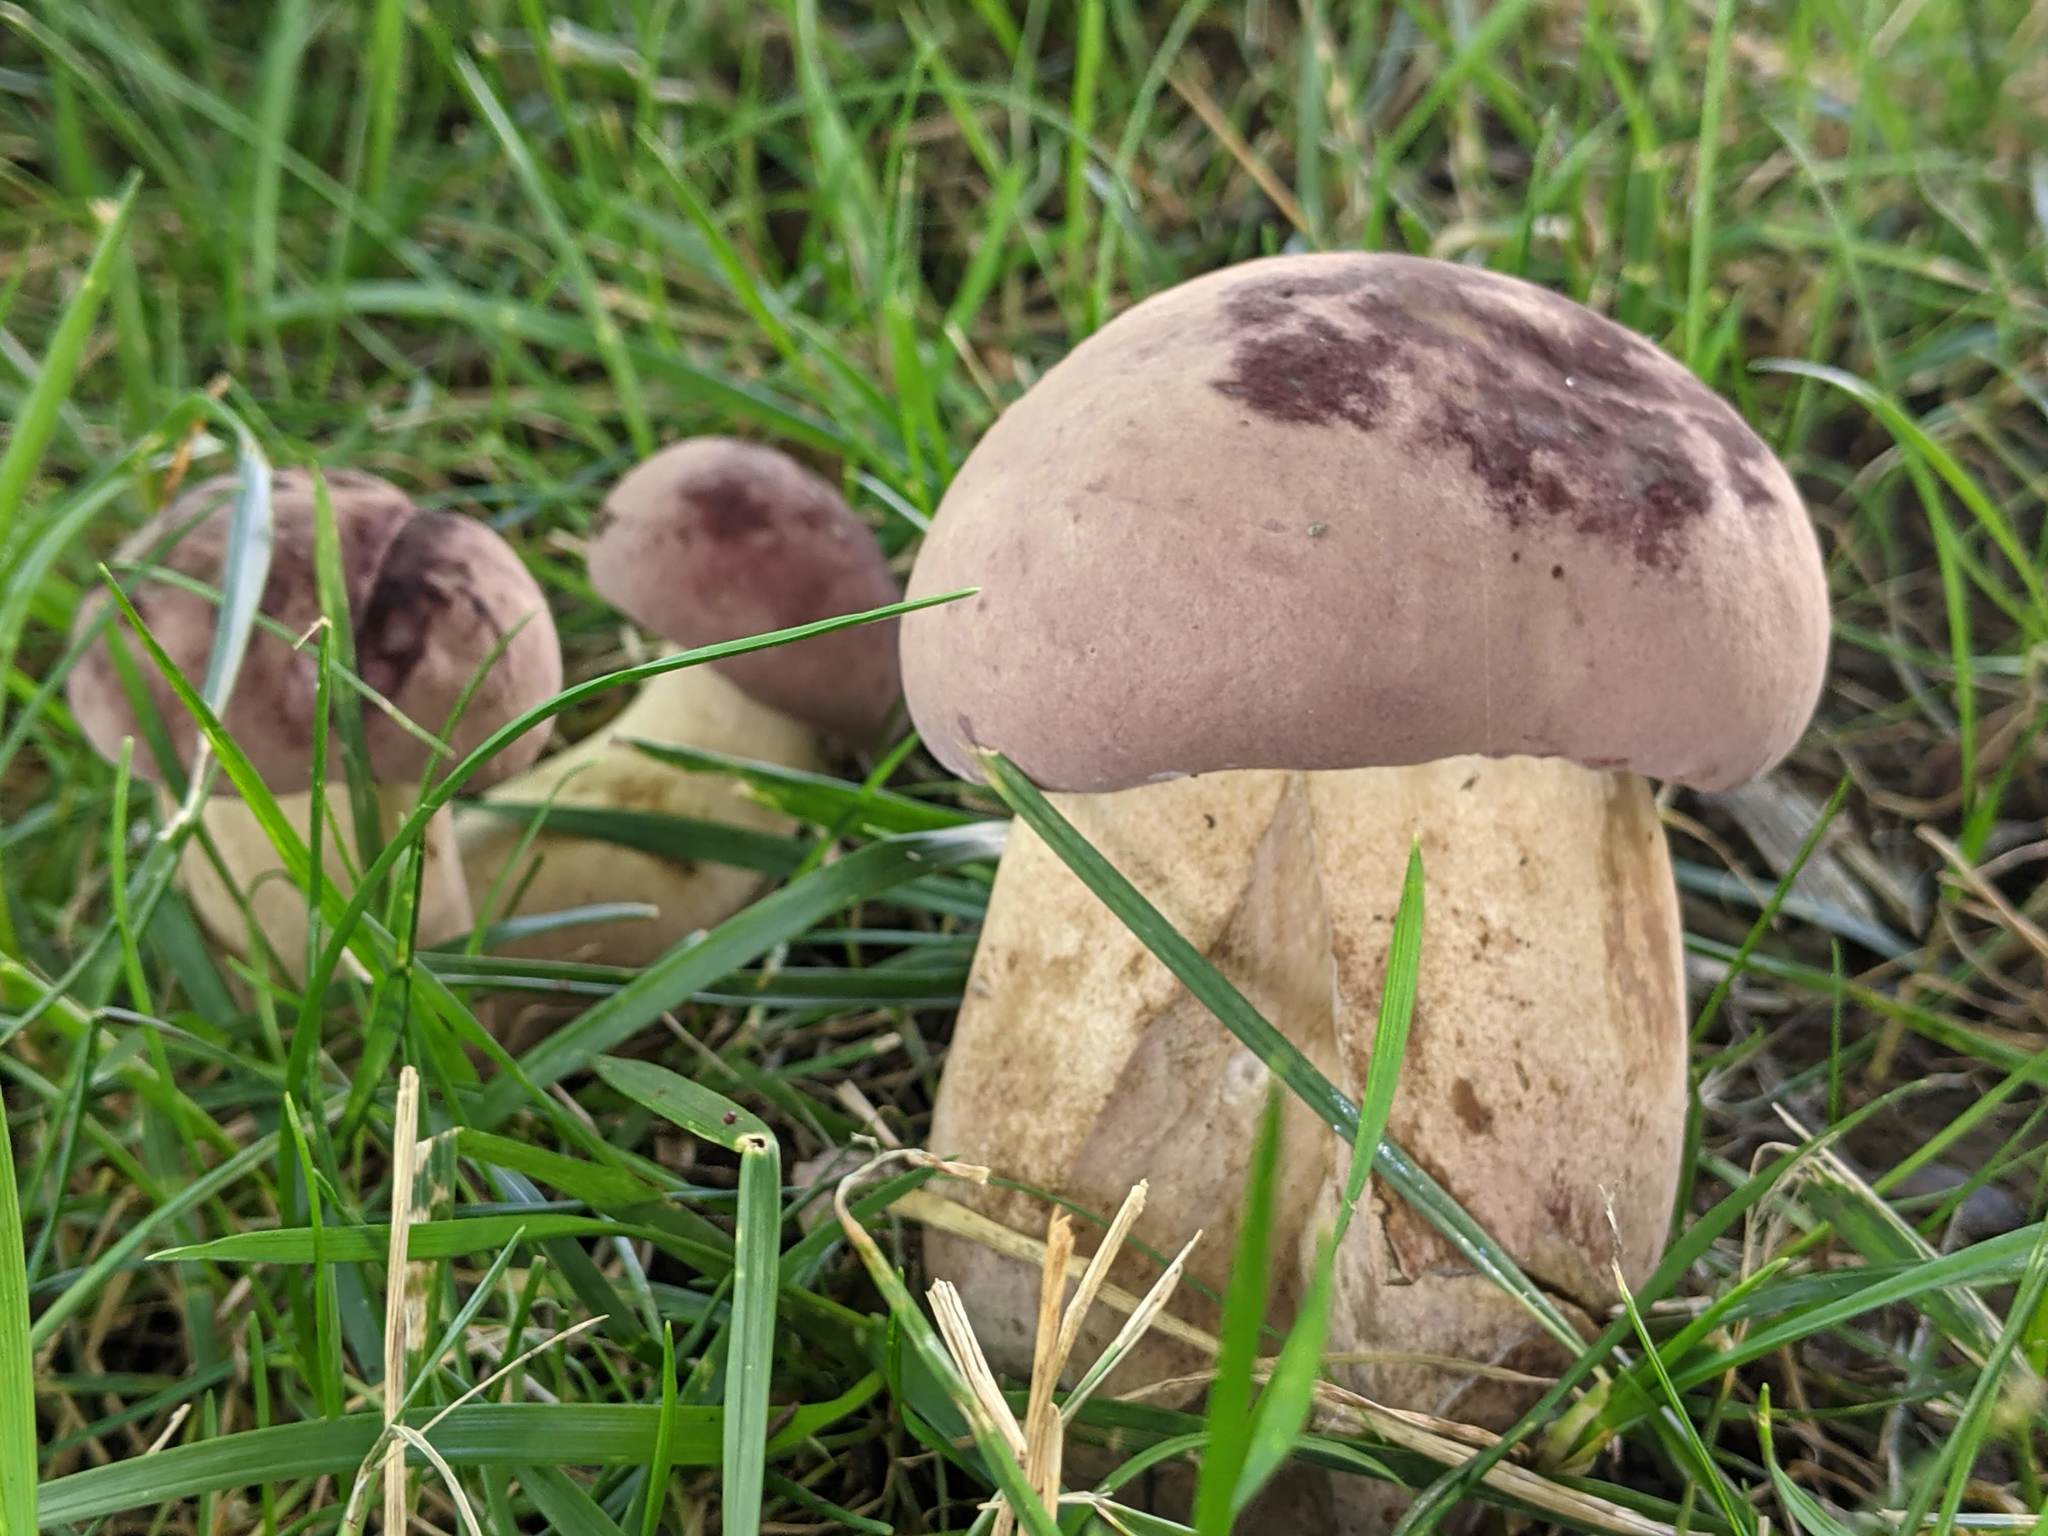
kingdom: Fungi
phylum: Basidiomycota
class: Agaricomycetes
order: Boletales
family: Boletaceae
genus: Tylopilus
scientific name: Tylopilus rubrobrunneus
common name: Reddish brown bitter bolete
